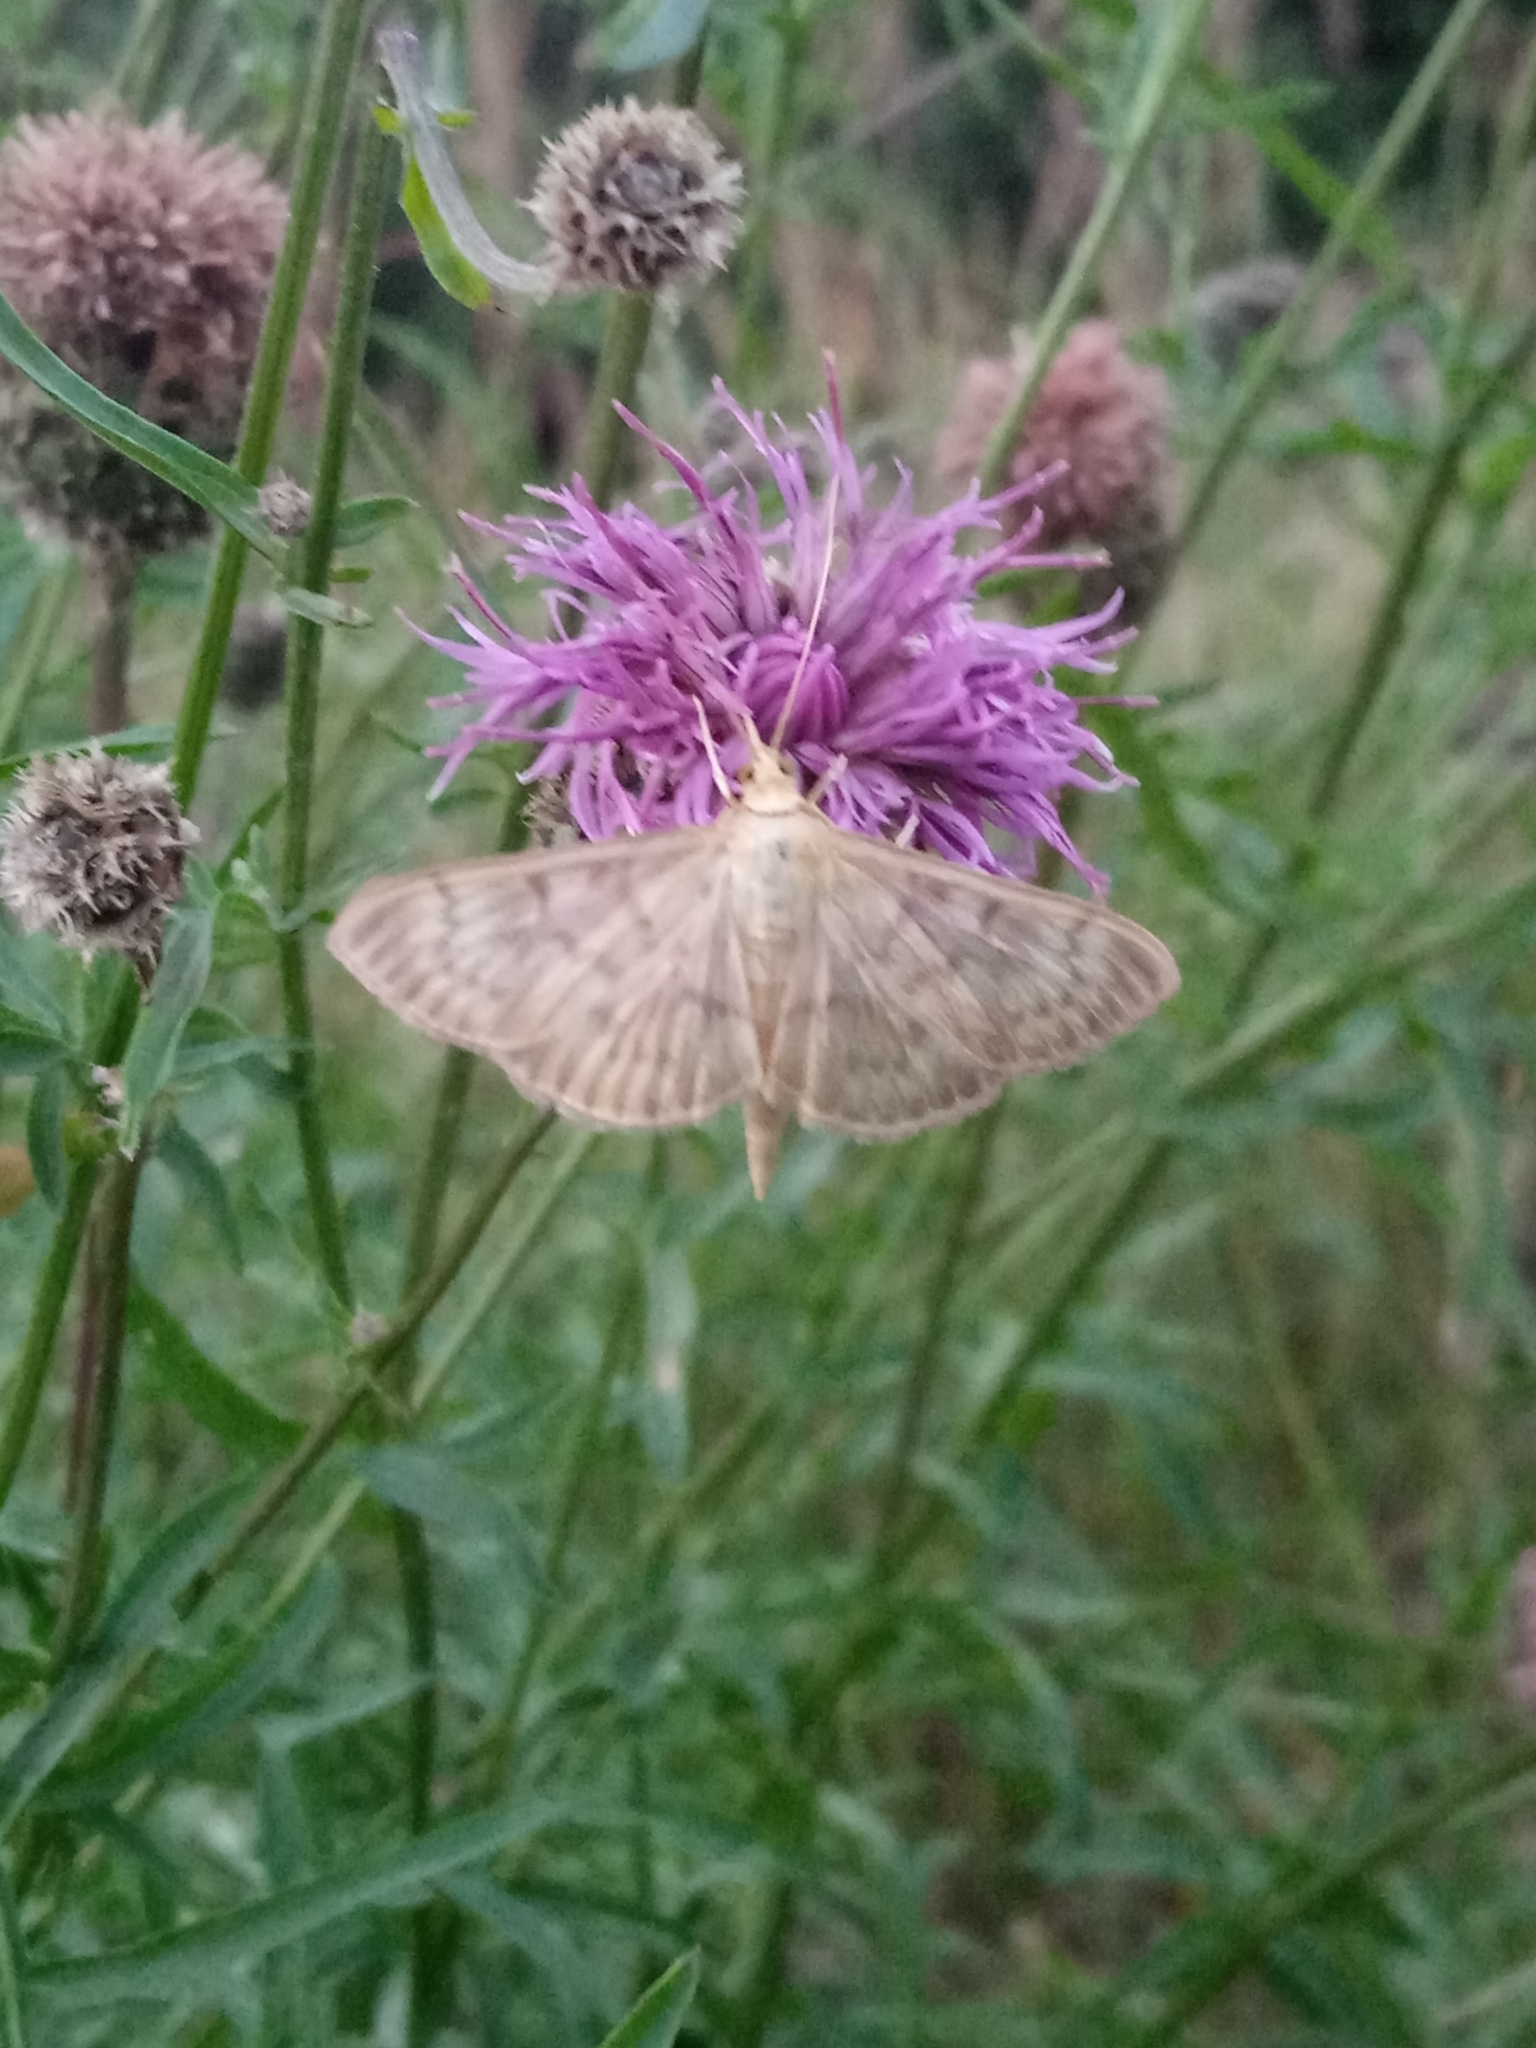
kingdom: Animalia
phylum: Arthropoda
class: Insecta
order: Lepidoptera
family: Crambidae
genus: Patania
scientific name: Patania ruralis
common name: Mother of pearl
